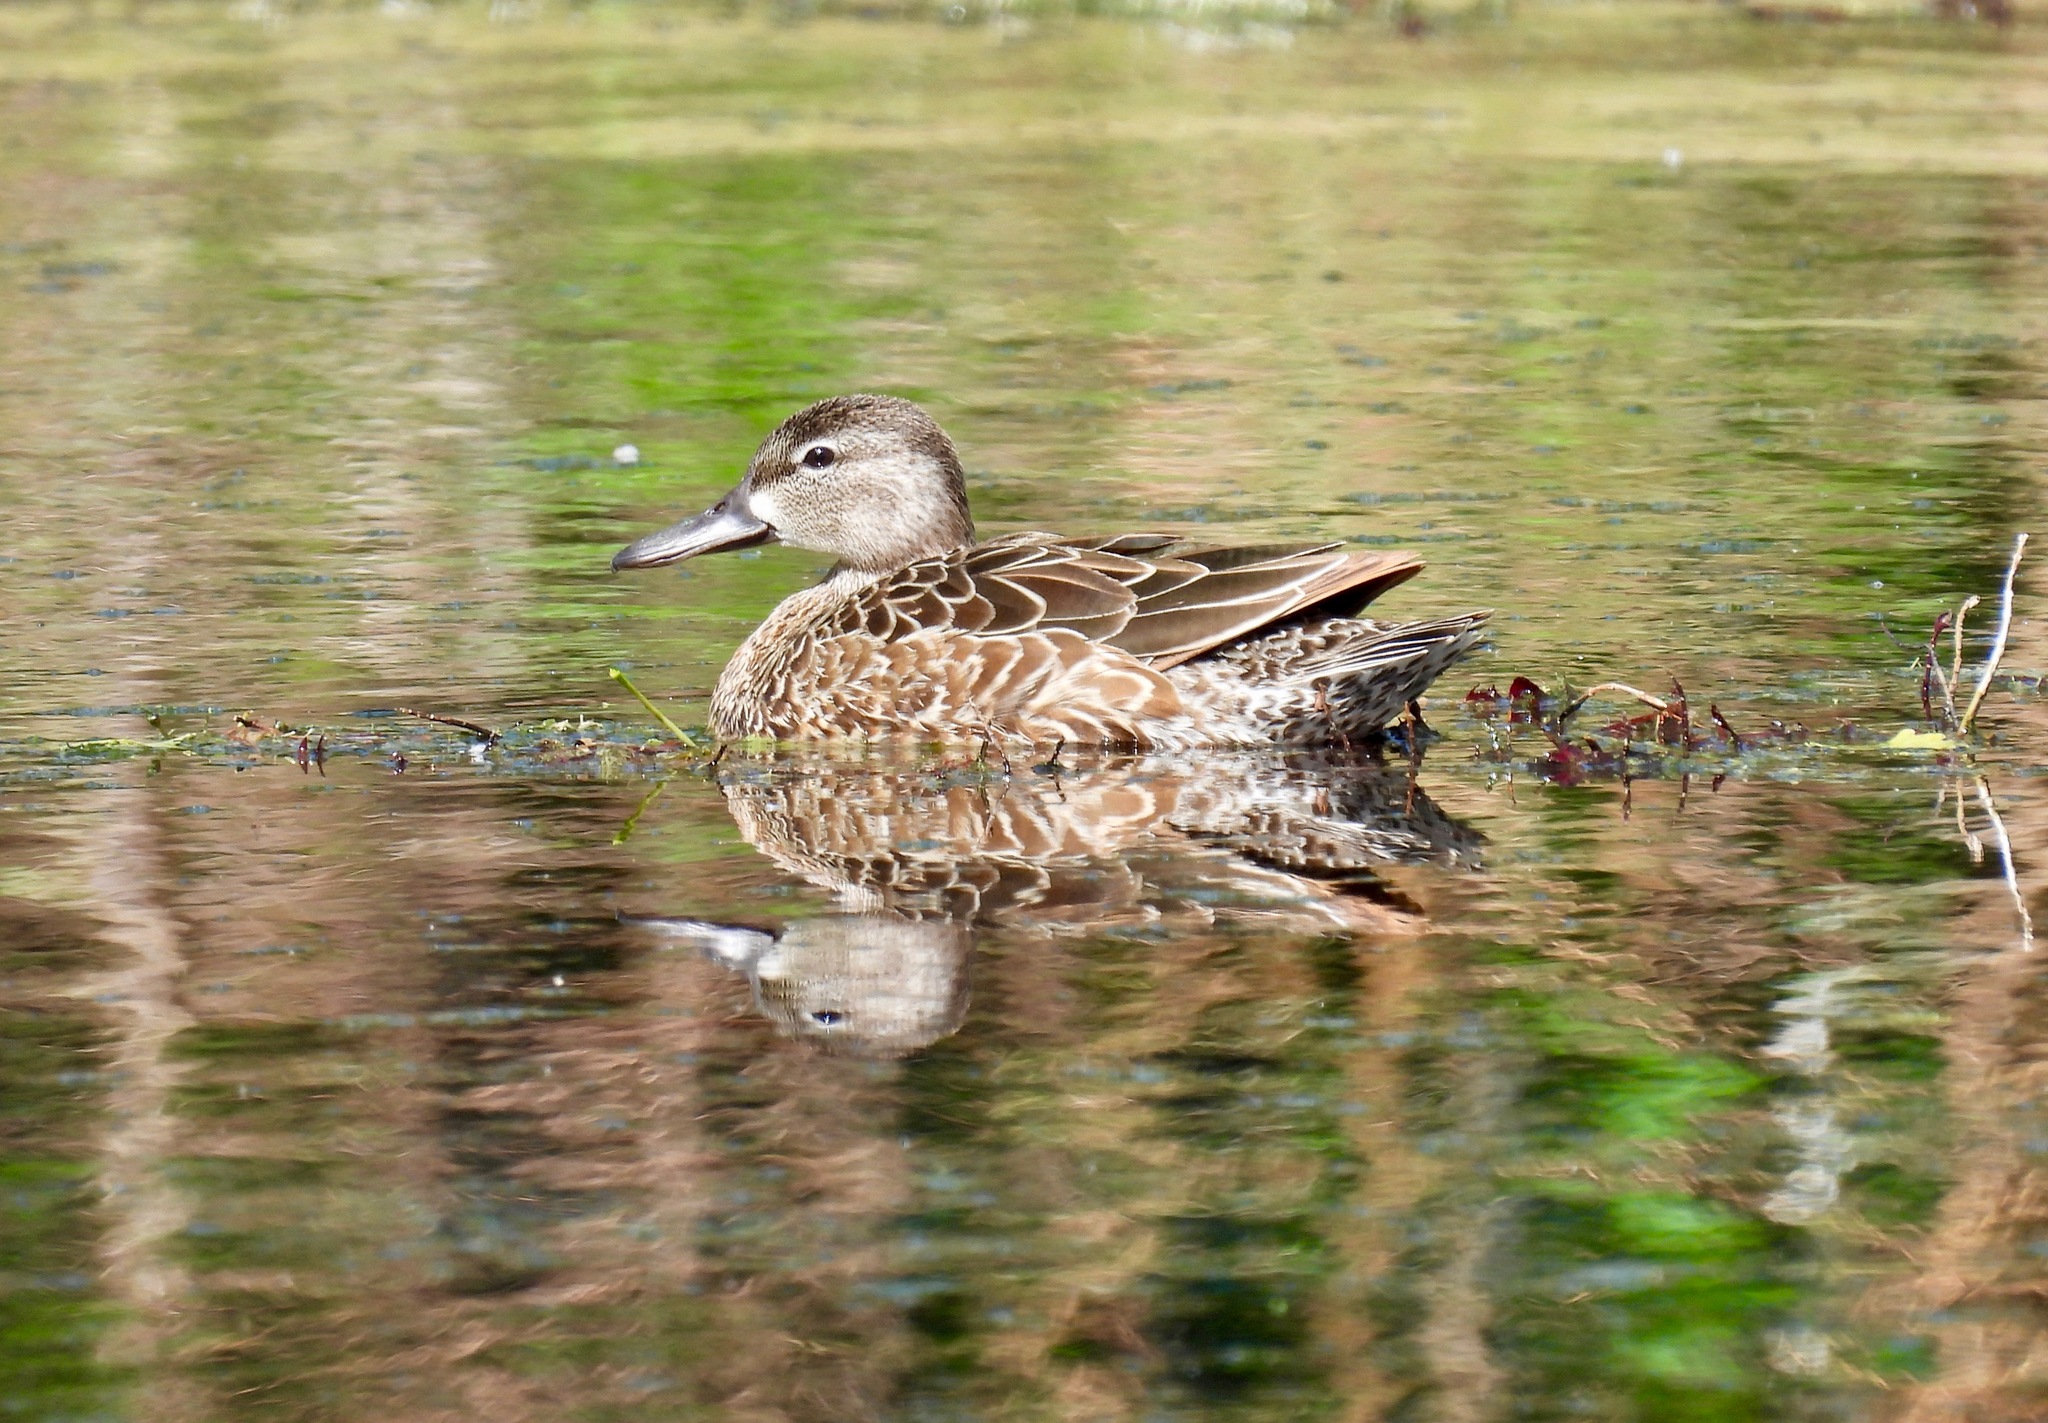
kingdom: Animalia
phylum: Chordata
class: Aves
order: Anseriformes
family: Anatidae
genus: Spatula
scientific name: Spatula discors
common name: Blue-winged teal
